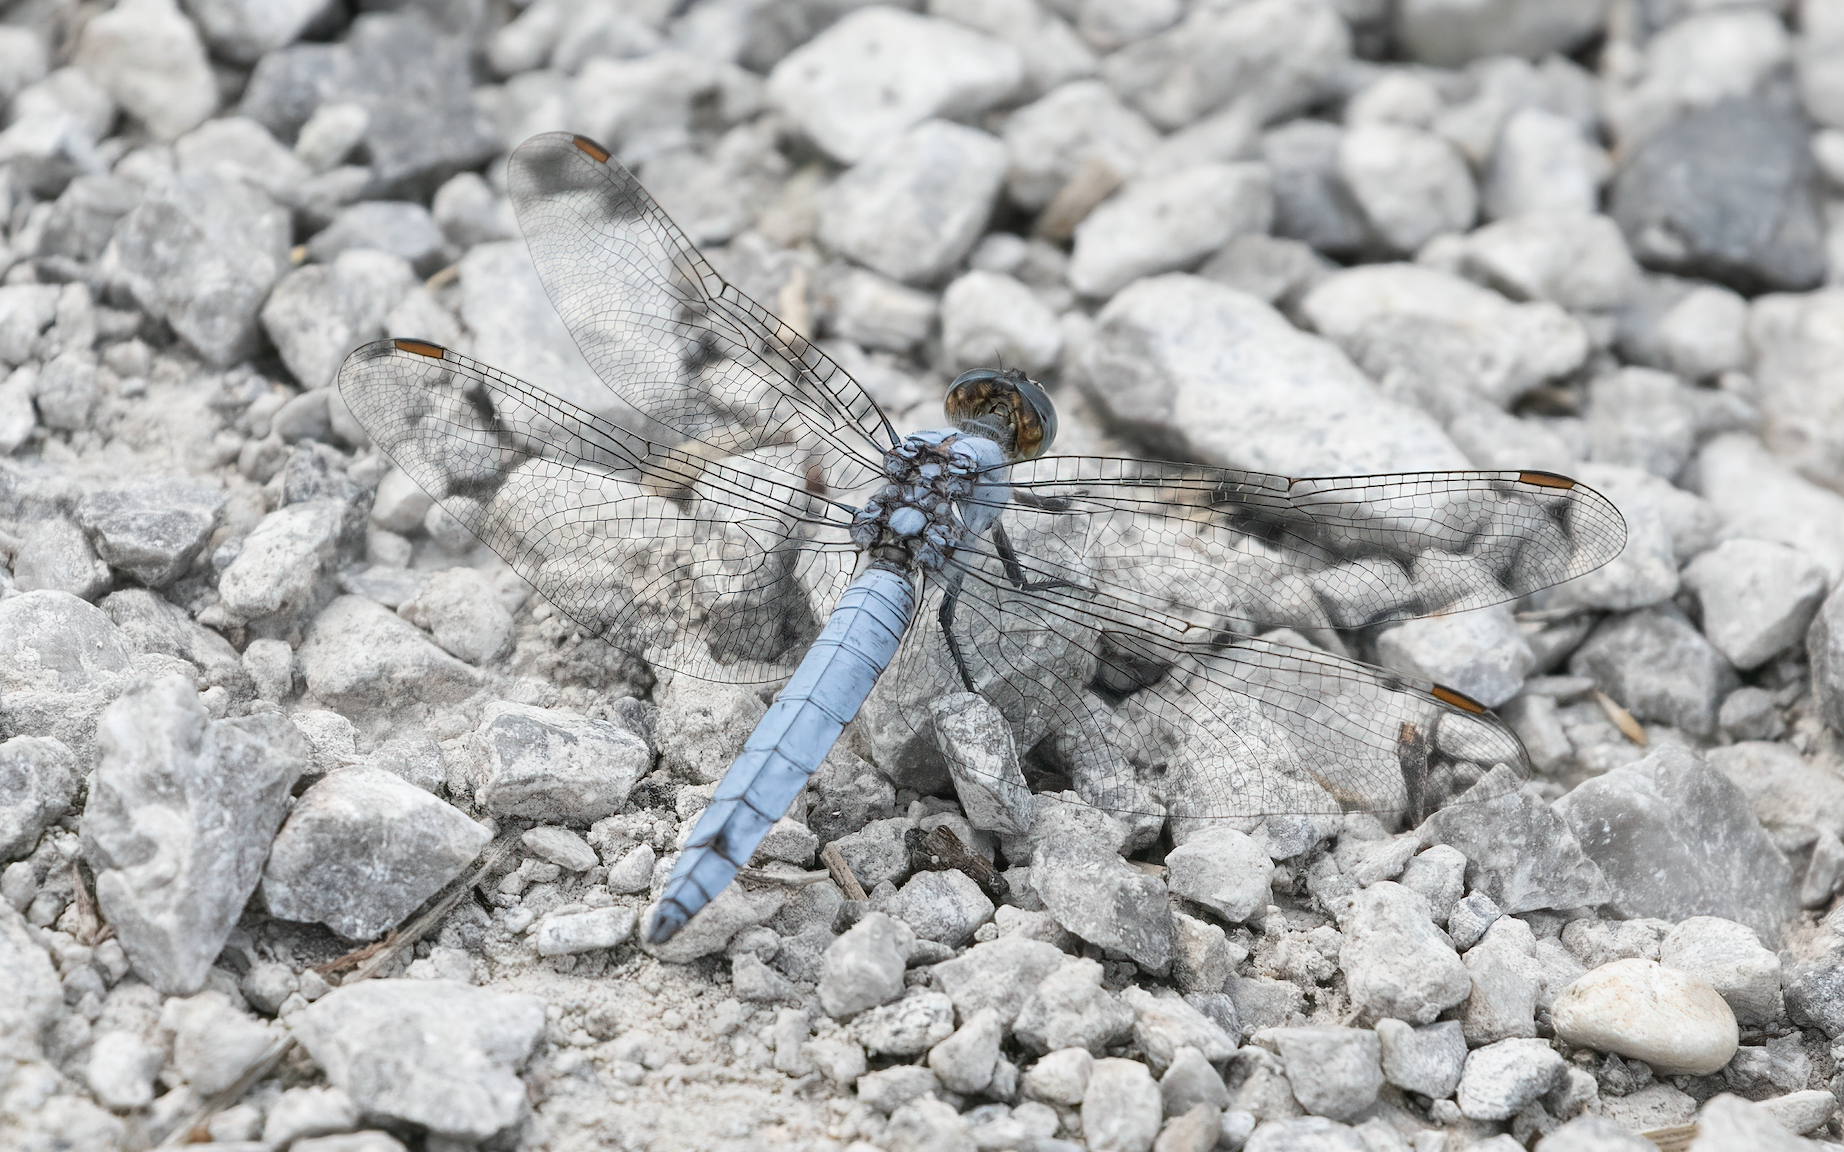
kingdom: Animalia
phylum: Arthropoda
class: Insecta
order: Odonata
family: Libellulidae
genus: Orthetrum
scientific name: Orthetrum brunneum
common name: Southern skimmer
